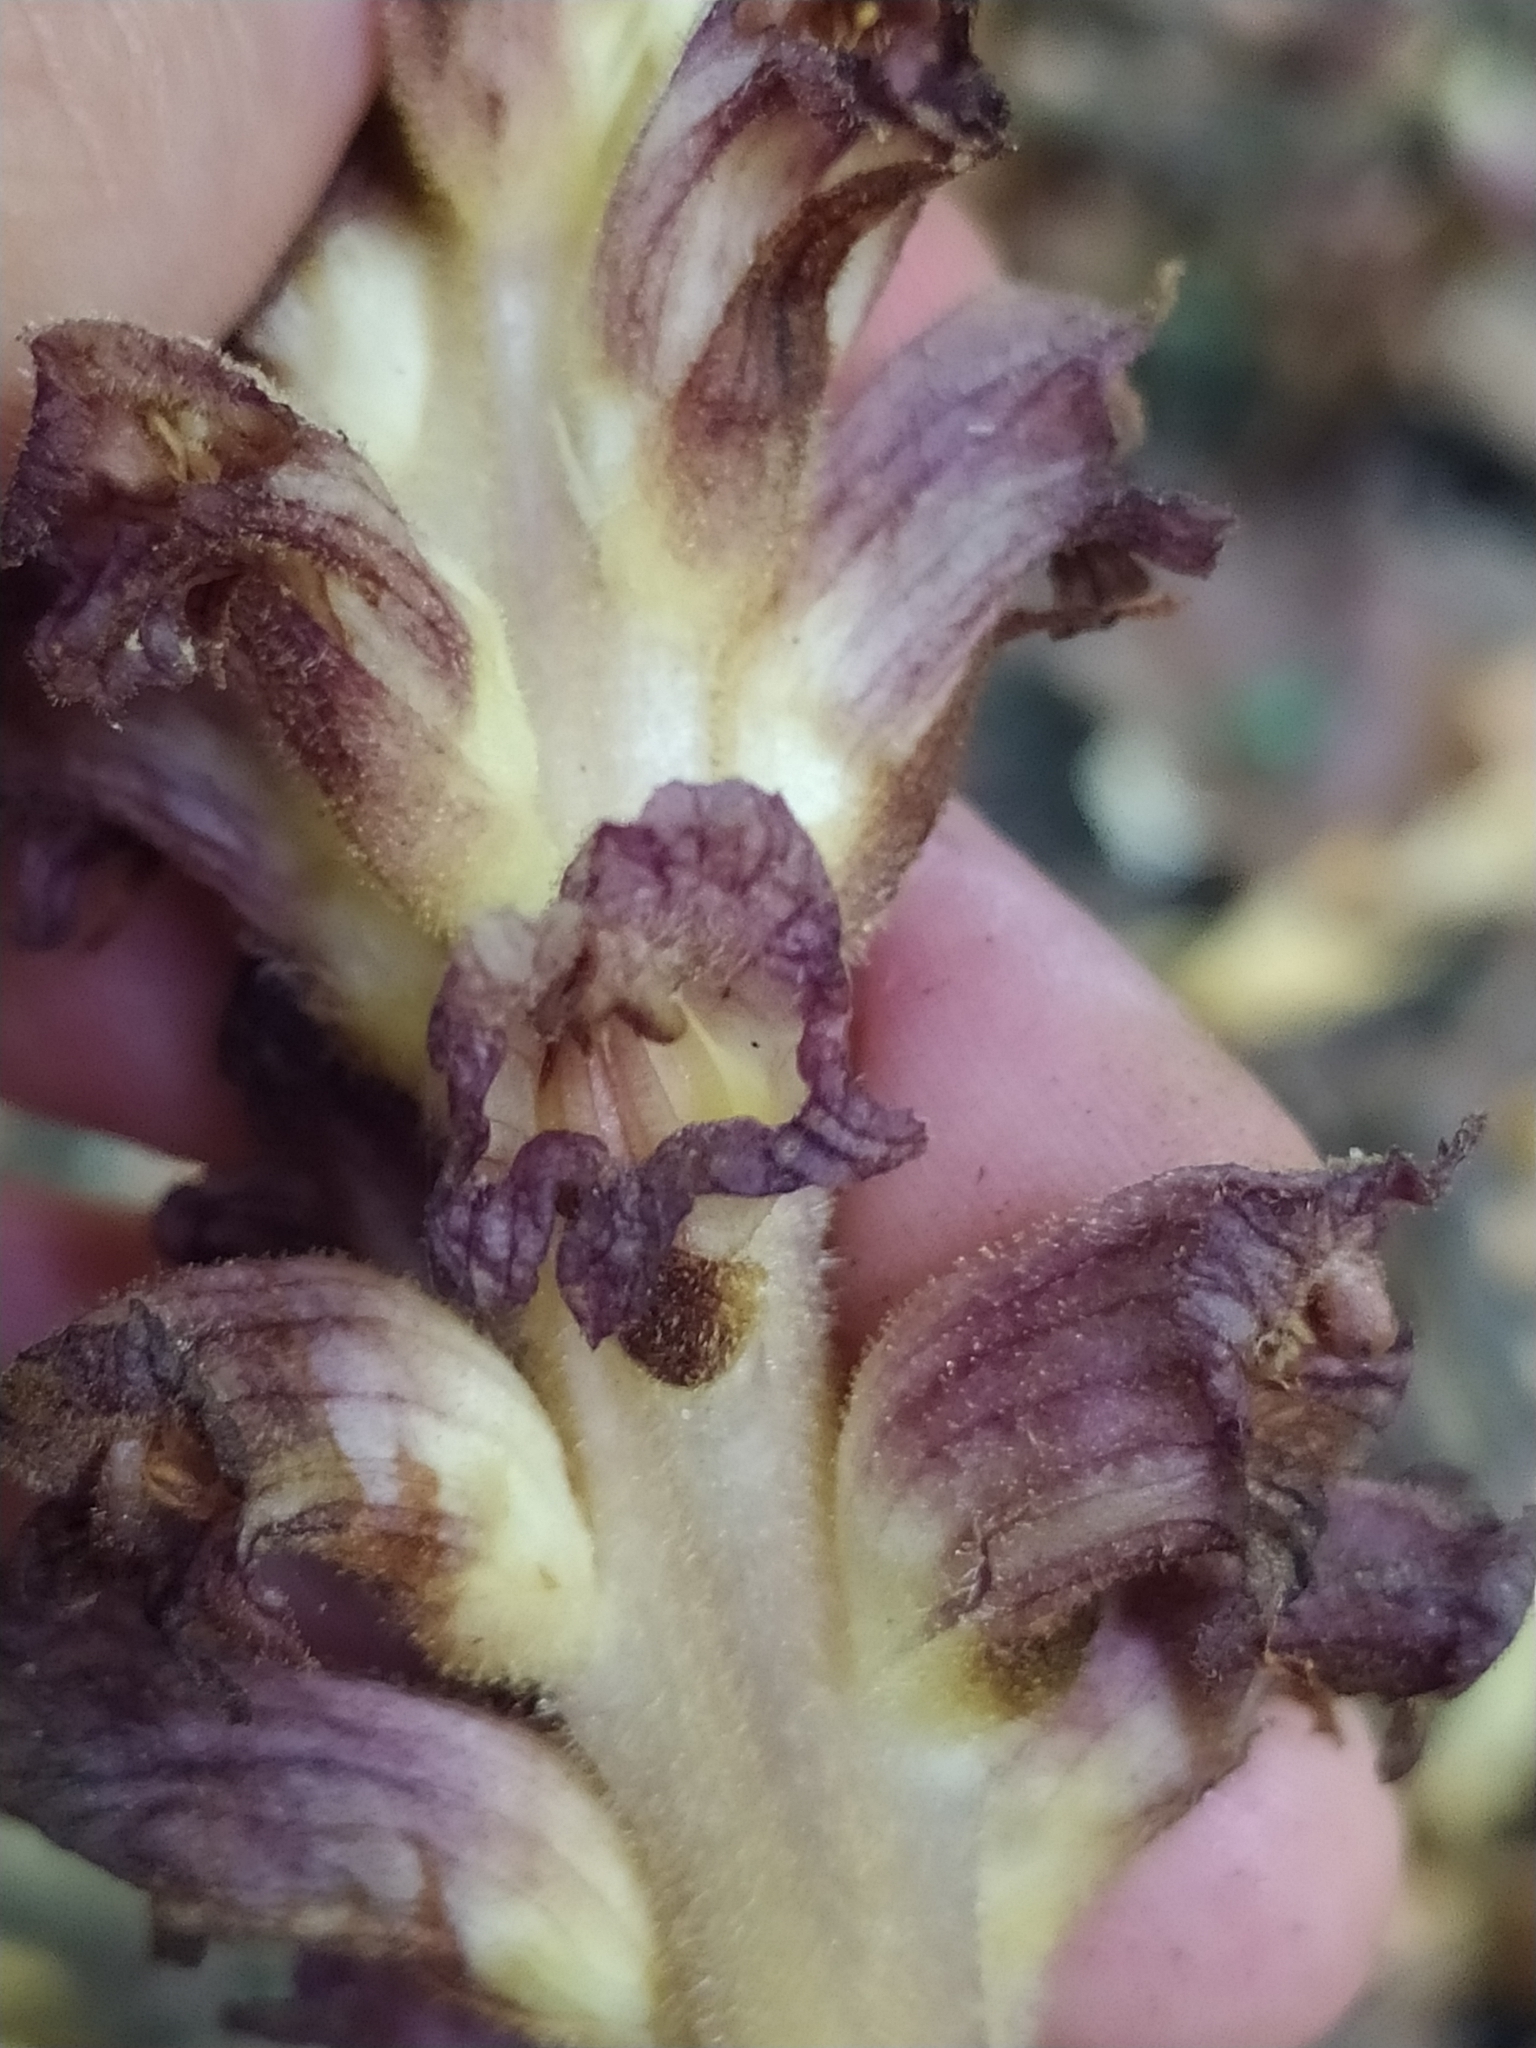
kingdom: Plantae
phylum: Tracheophyta
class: Magnoliopsida
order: Lamiales
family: Orobanchaceae
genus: Orobanche
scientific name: Orobanche ebuli
